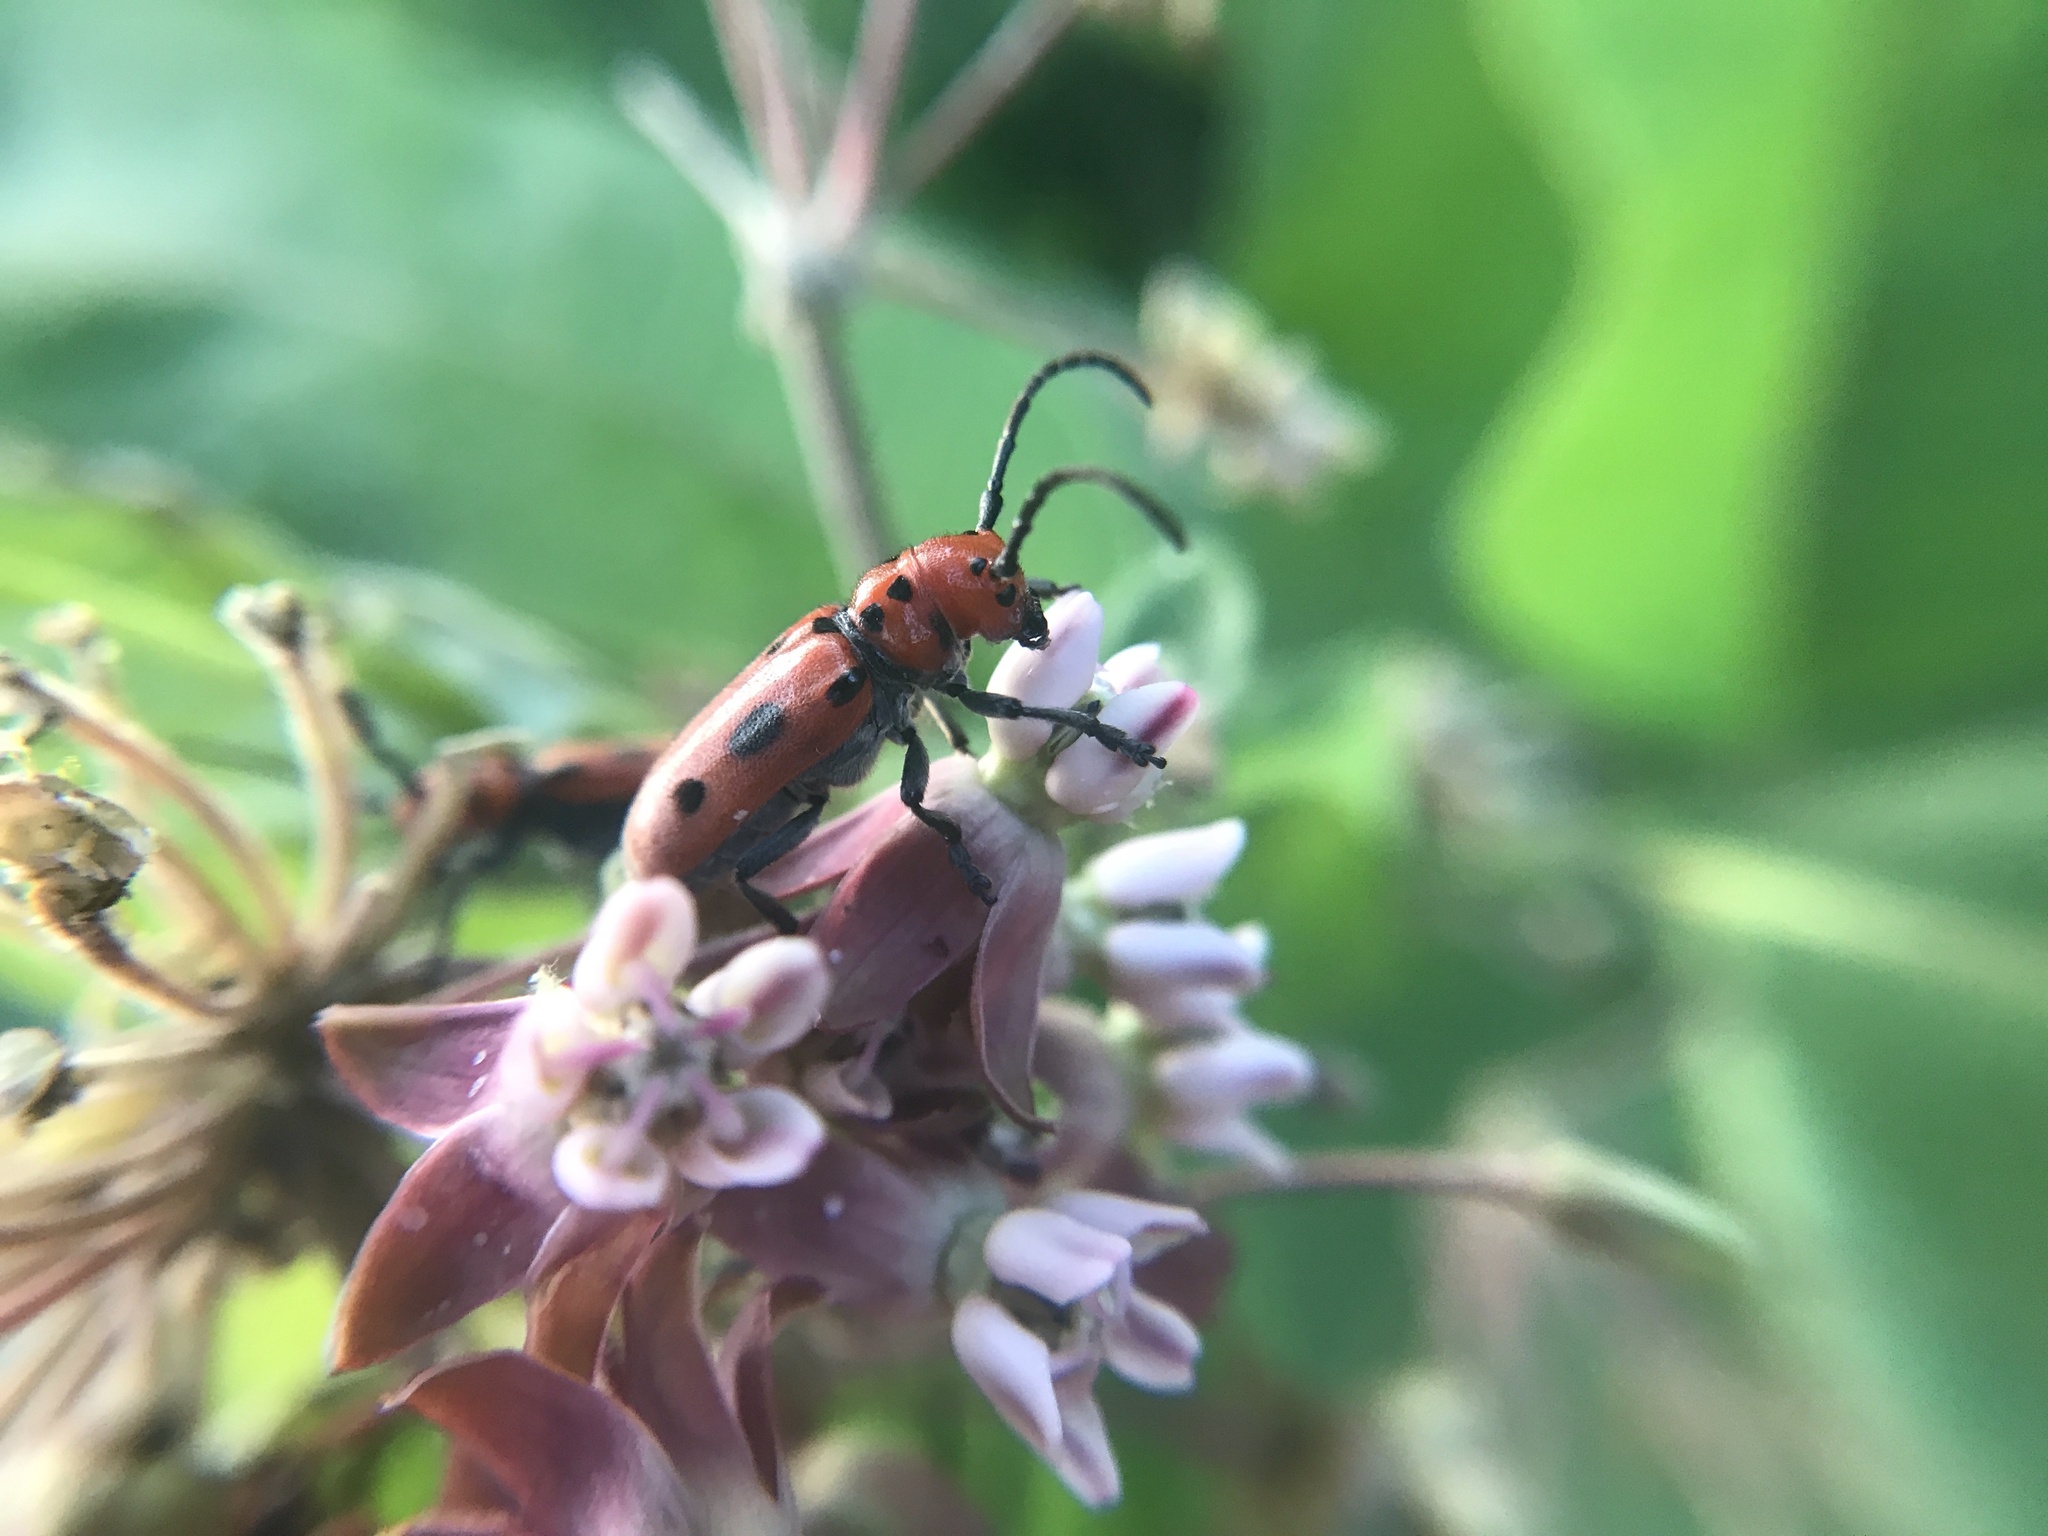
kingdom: Animalia
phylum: Arthropoda
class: Insecta
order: Coleoptera
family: Cerambycidae
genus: Tetraopes
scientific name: Tetraopes tetrophthalmus
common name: Red milkweed beetle
